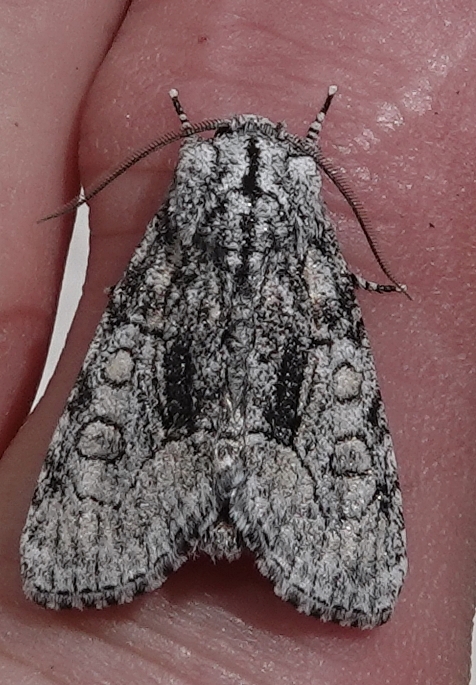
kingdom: Animalia
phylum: Arthropoda
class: Insecta
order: Lepidoptera
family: Noctuidae
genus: Raphia
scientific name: Raphia frater
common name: Brother
